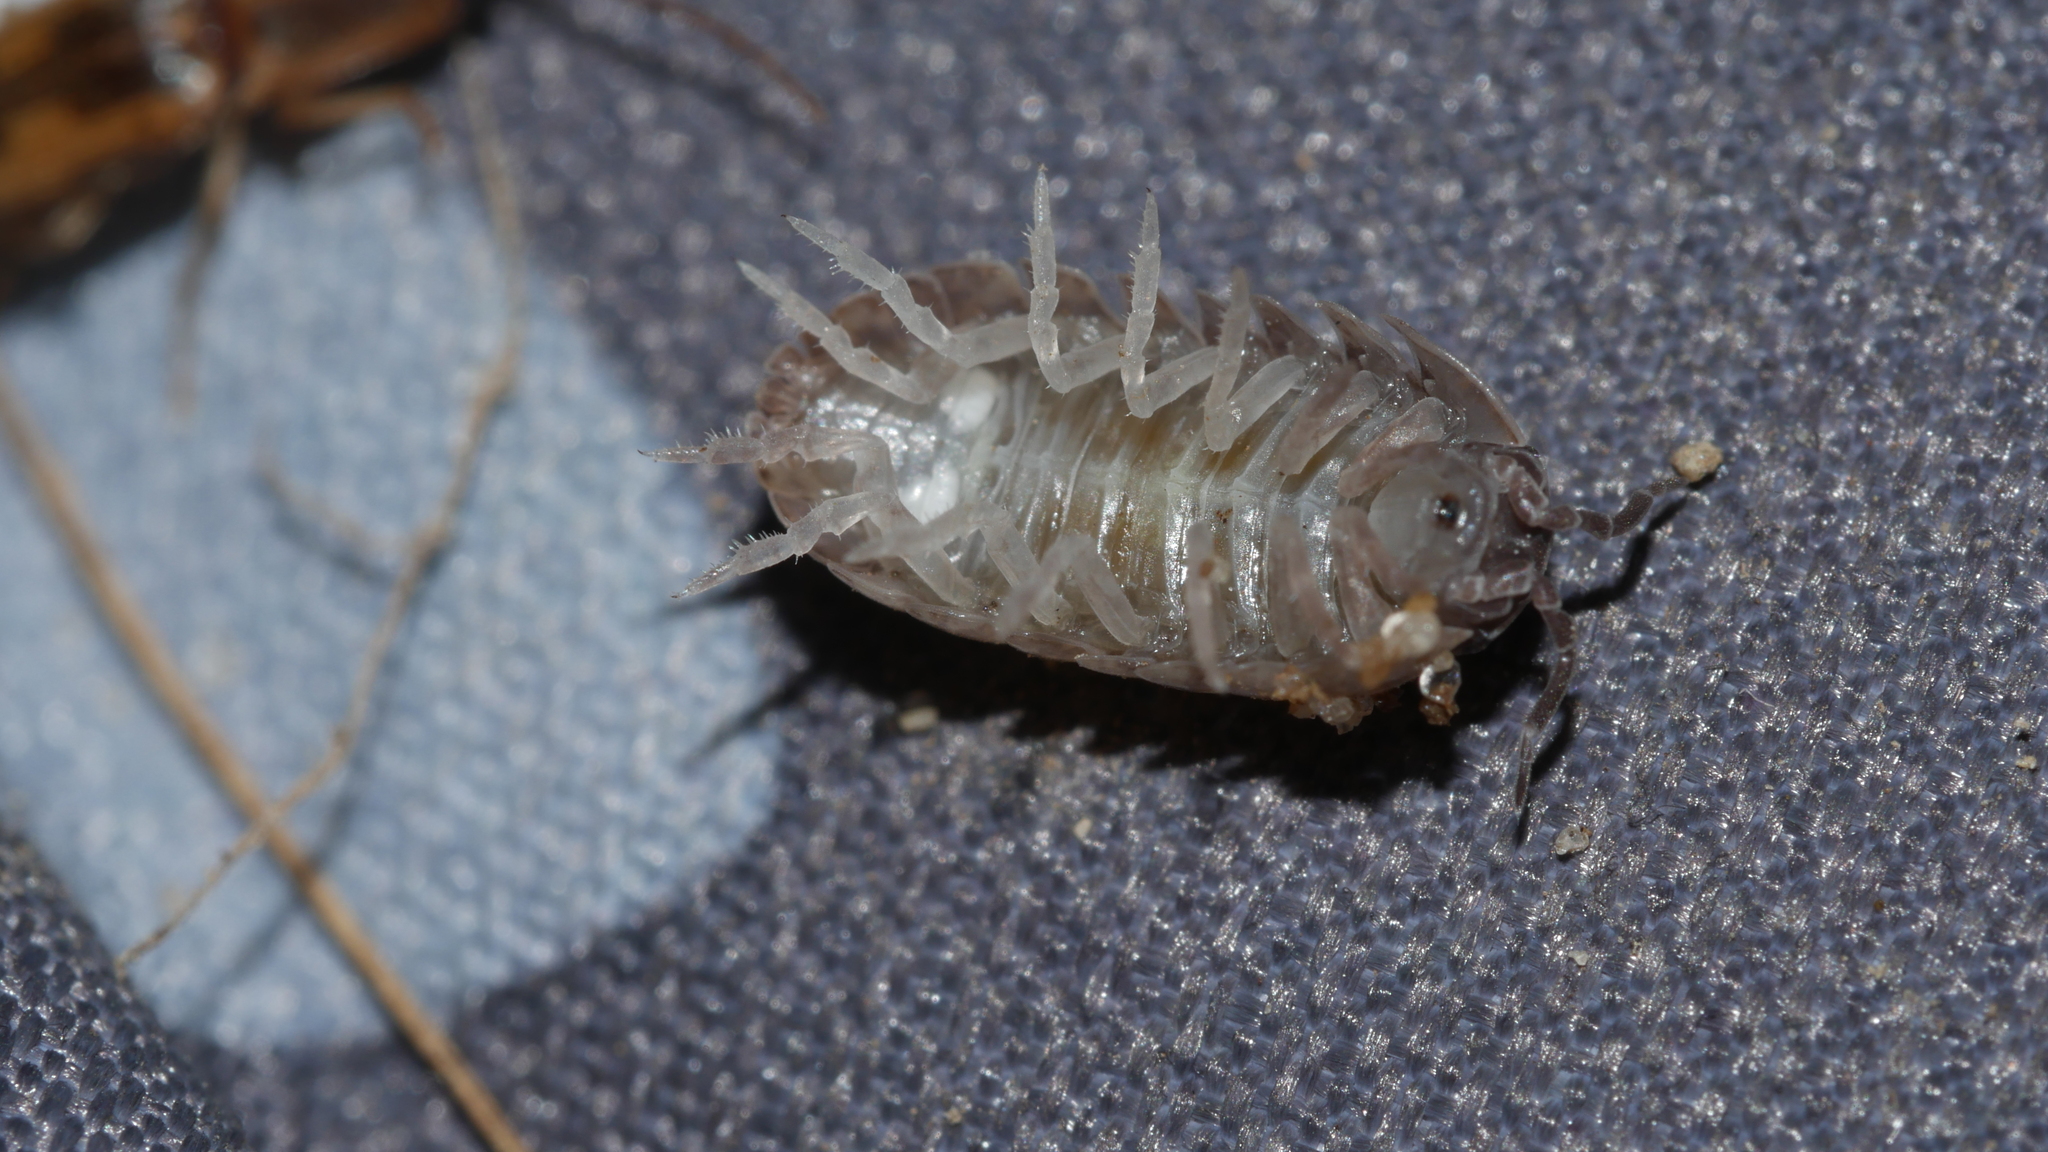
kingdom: Animalia
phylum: Arthropoda
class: Malacostraca
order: Isopoda
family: Armadillidiidae
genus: Armadillidium
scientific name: Armadillidium vulgare
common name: Common pill woodlouse
